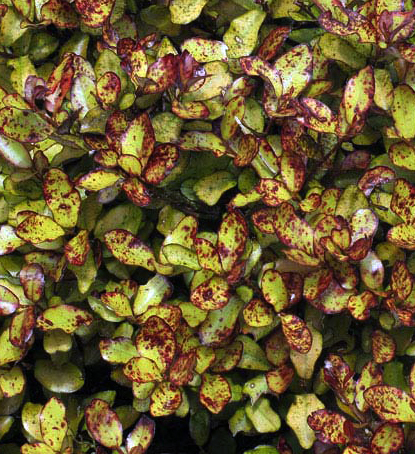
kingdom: Plantae
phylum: Tracheophyta
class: Magnoliopsida
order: Canellales
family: Winteraceae
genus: Pseudowintera
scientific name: Pseudowintera colorata
